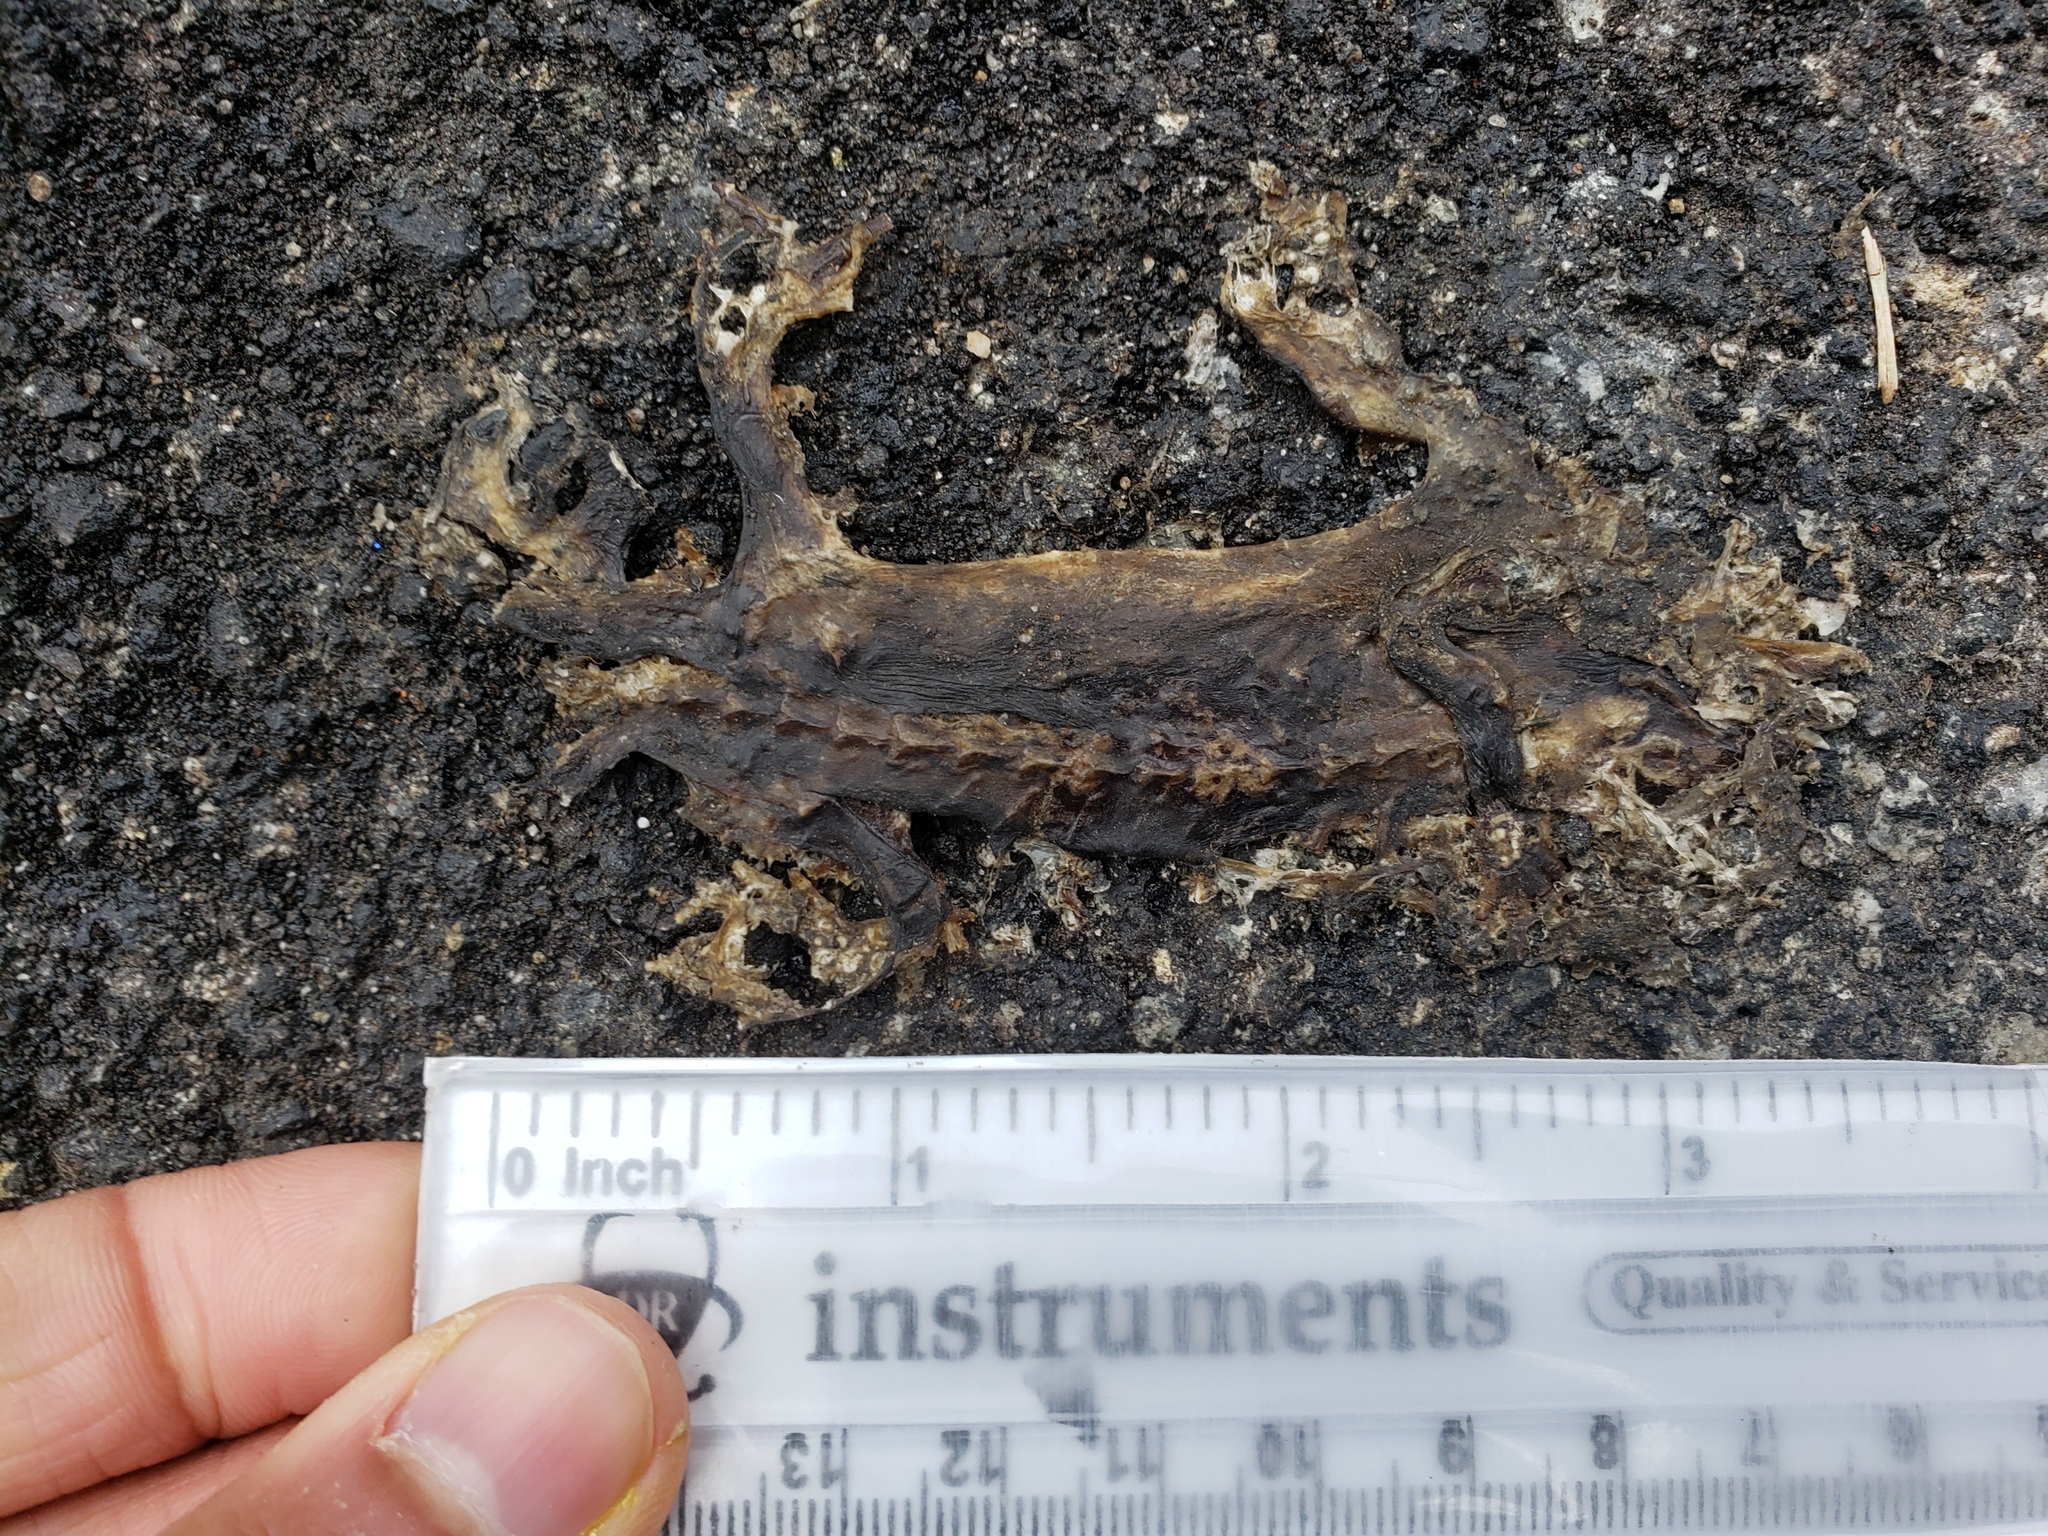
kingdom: Animalia
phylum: Chordata
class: Amphibia
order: Caudata
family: Salamandridae
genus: Taricha
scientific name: Taricha
